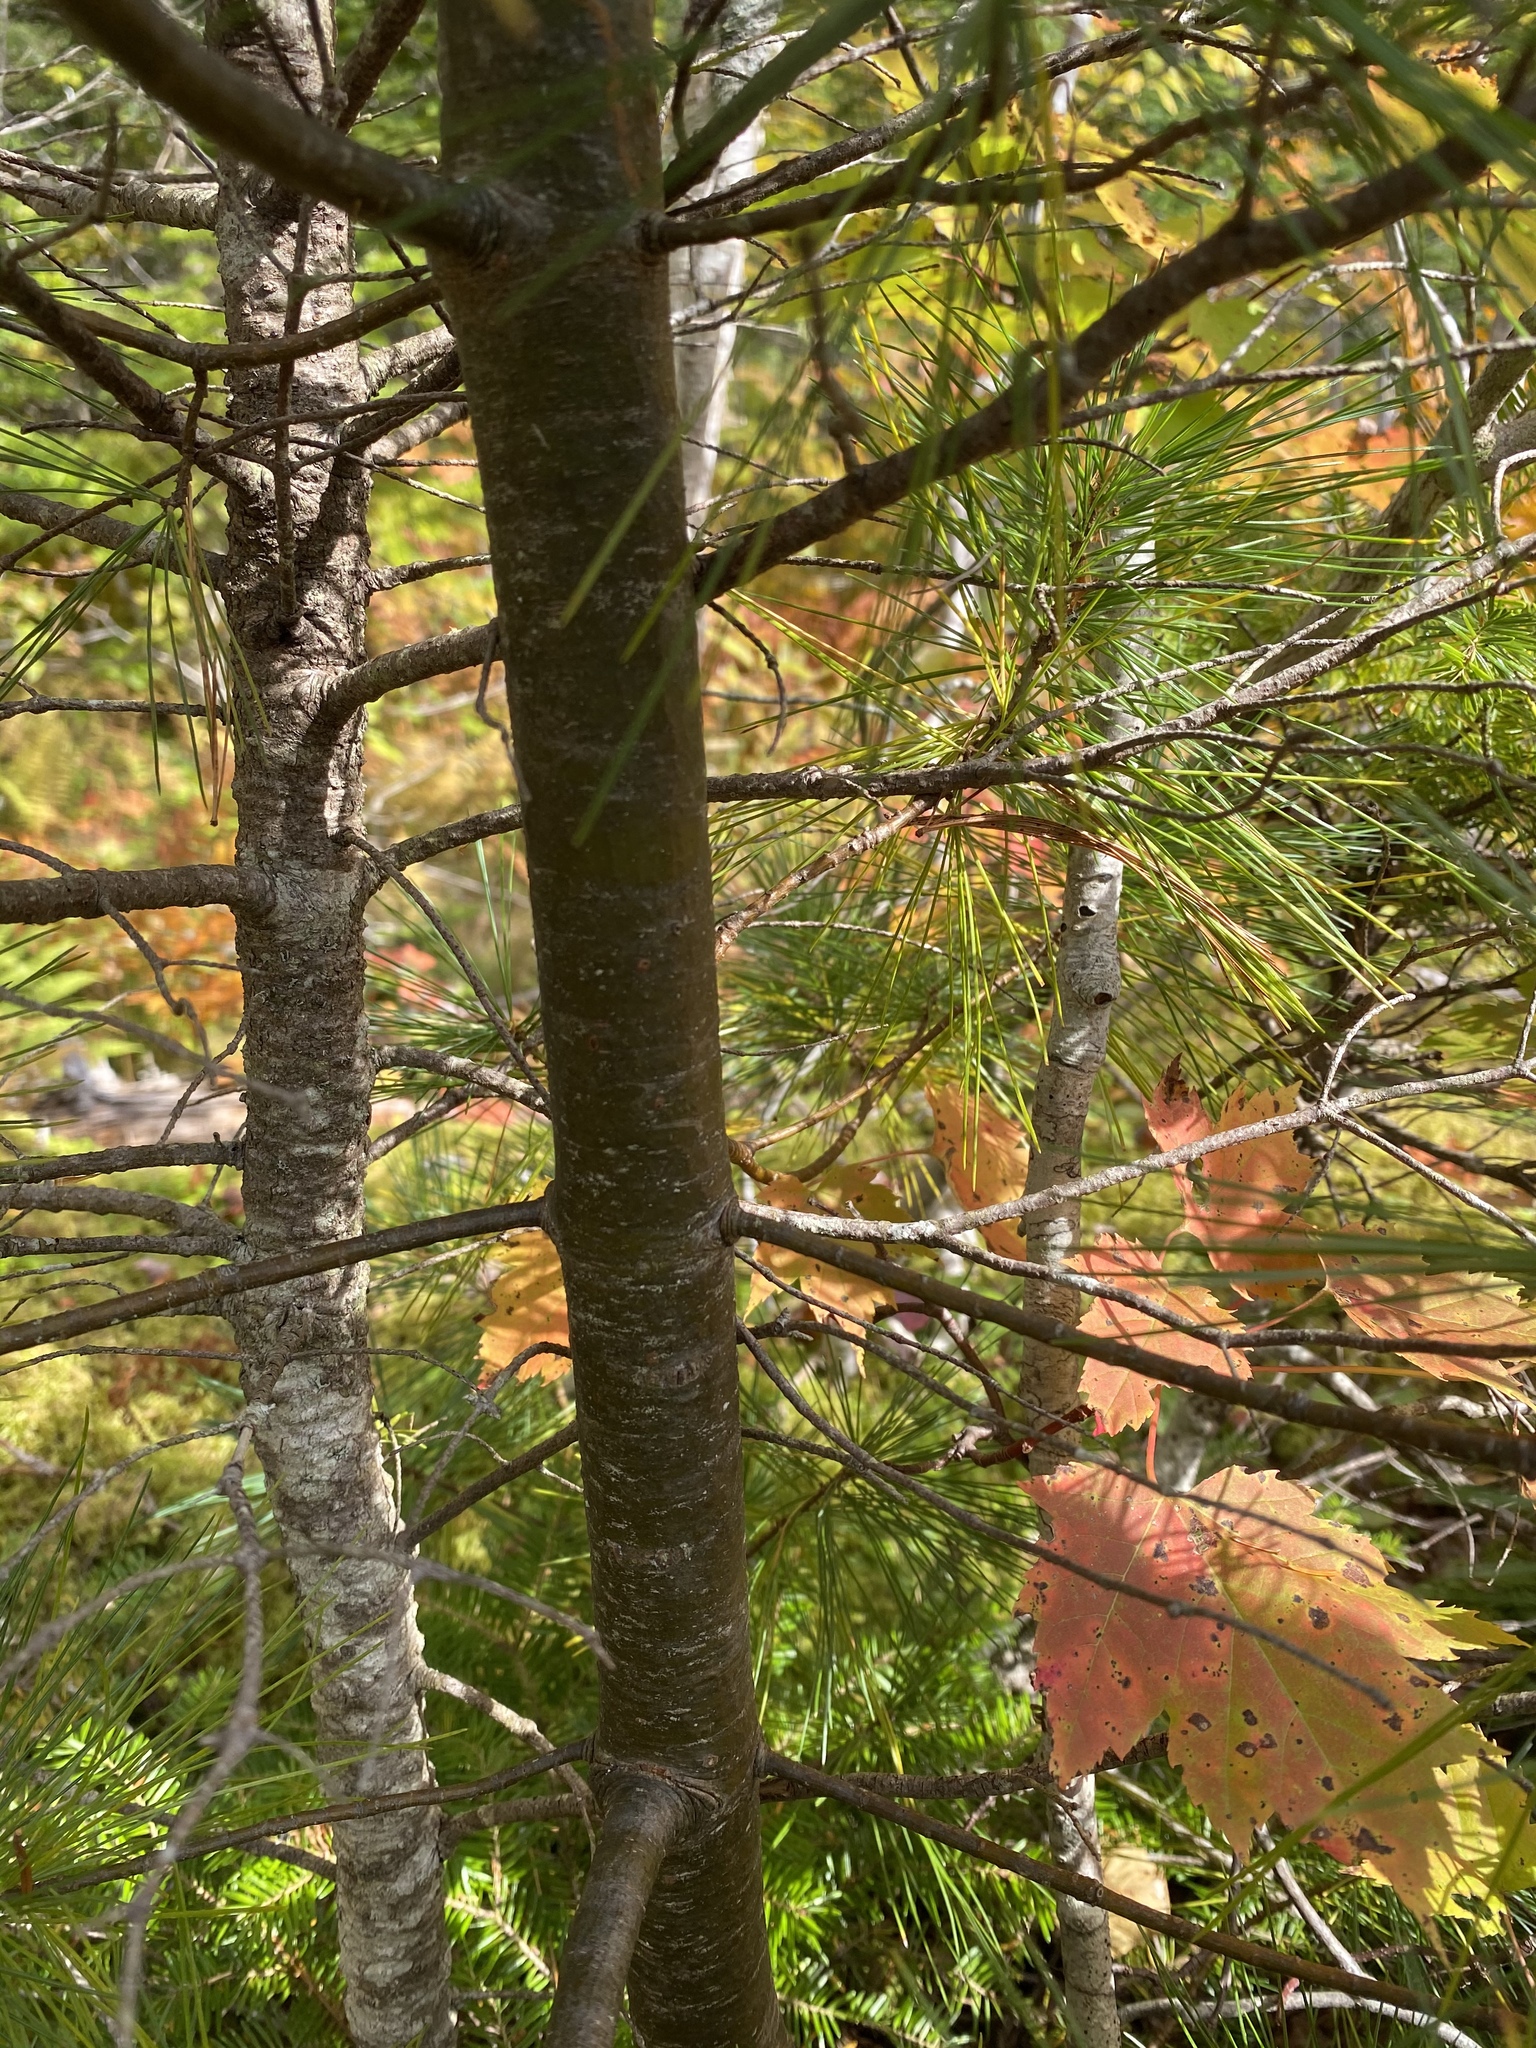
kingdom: Plantae
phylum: Tracheophyta
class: Pinopsida
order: Pinales
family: Pinaceae
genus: Pinus
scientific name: Pinus strobus
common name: Weymouth pine
